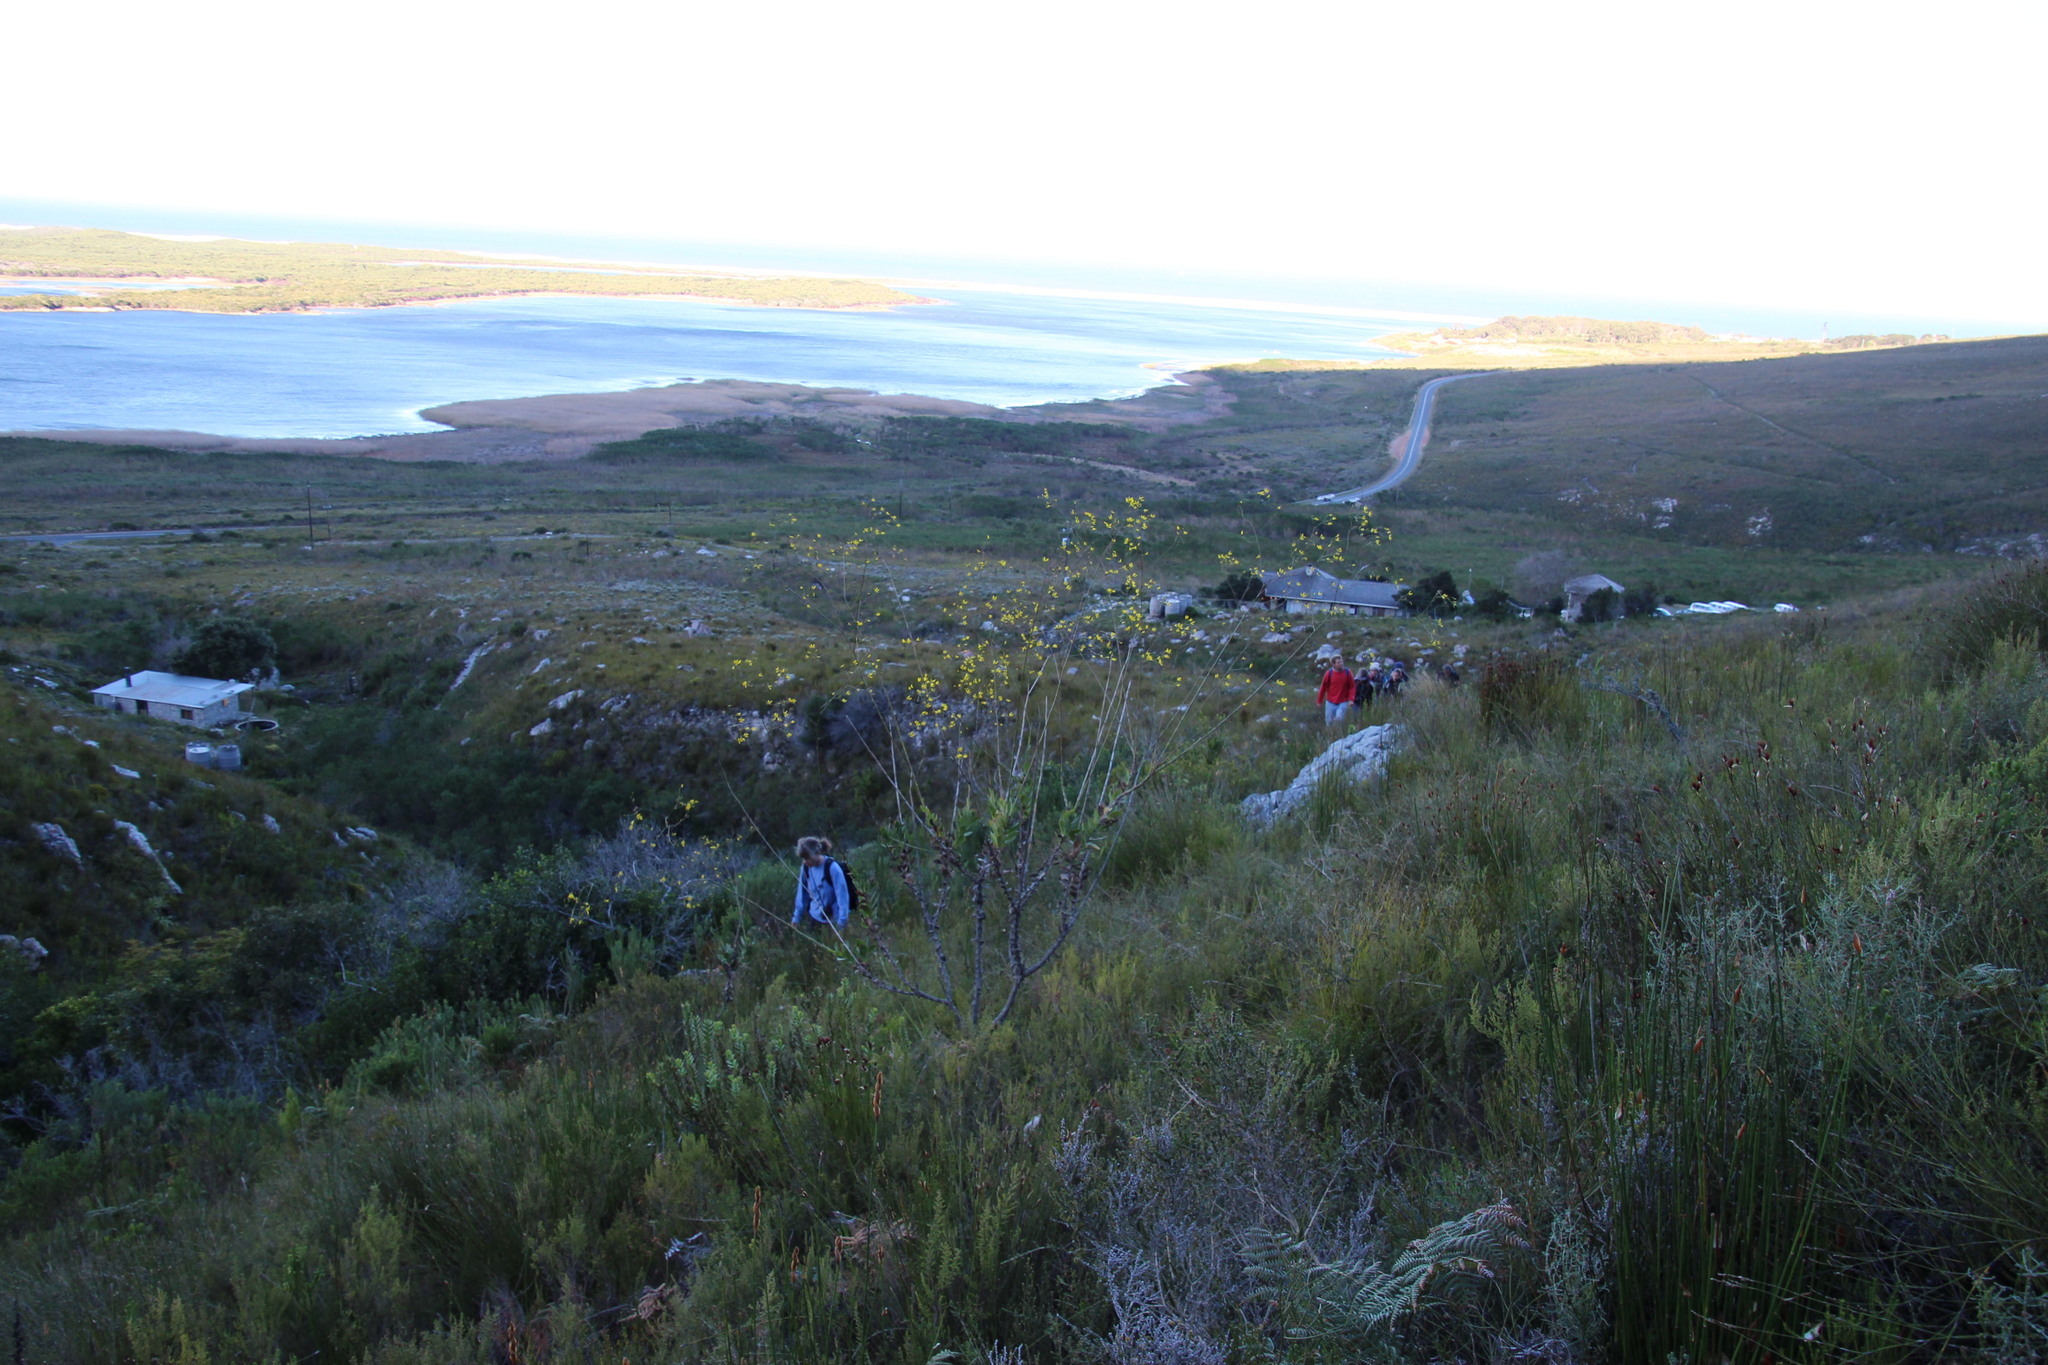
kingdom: Plantae
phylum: Tracheophyta
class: Magnoliopsida
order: Asterales
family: Asteraceae
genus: Othonna
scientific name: Othonna quinquedentata
